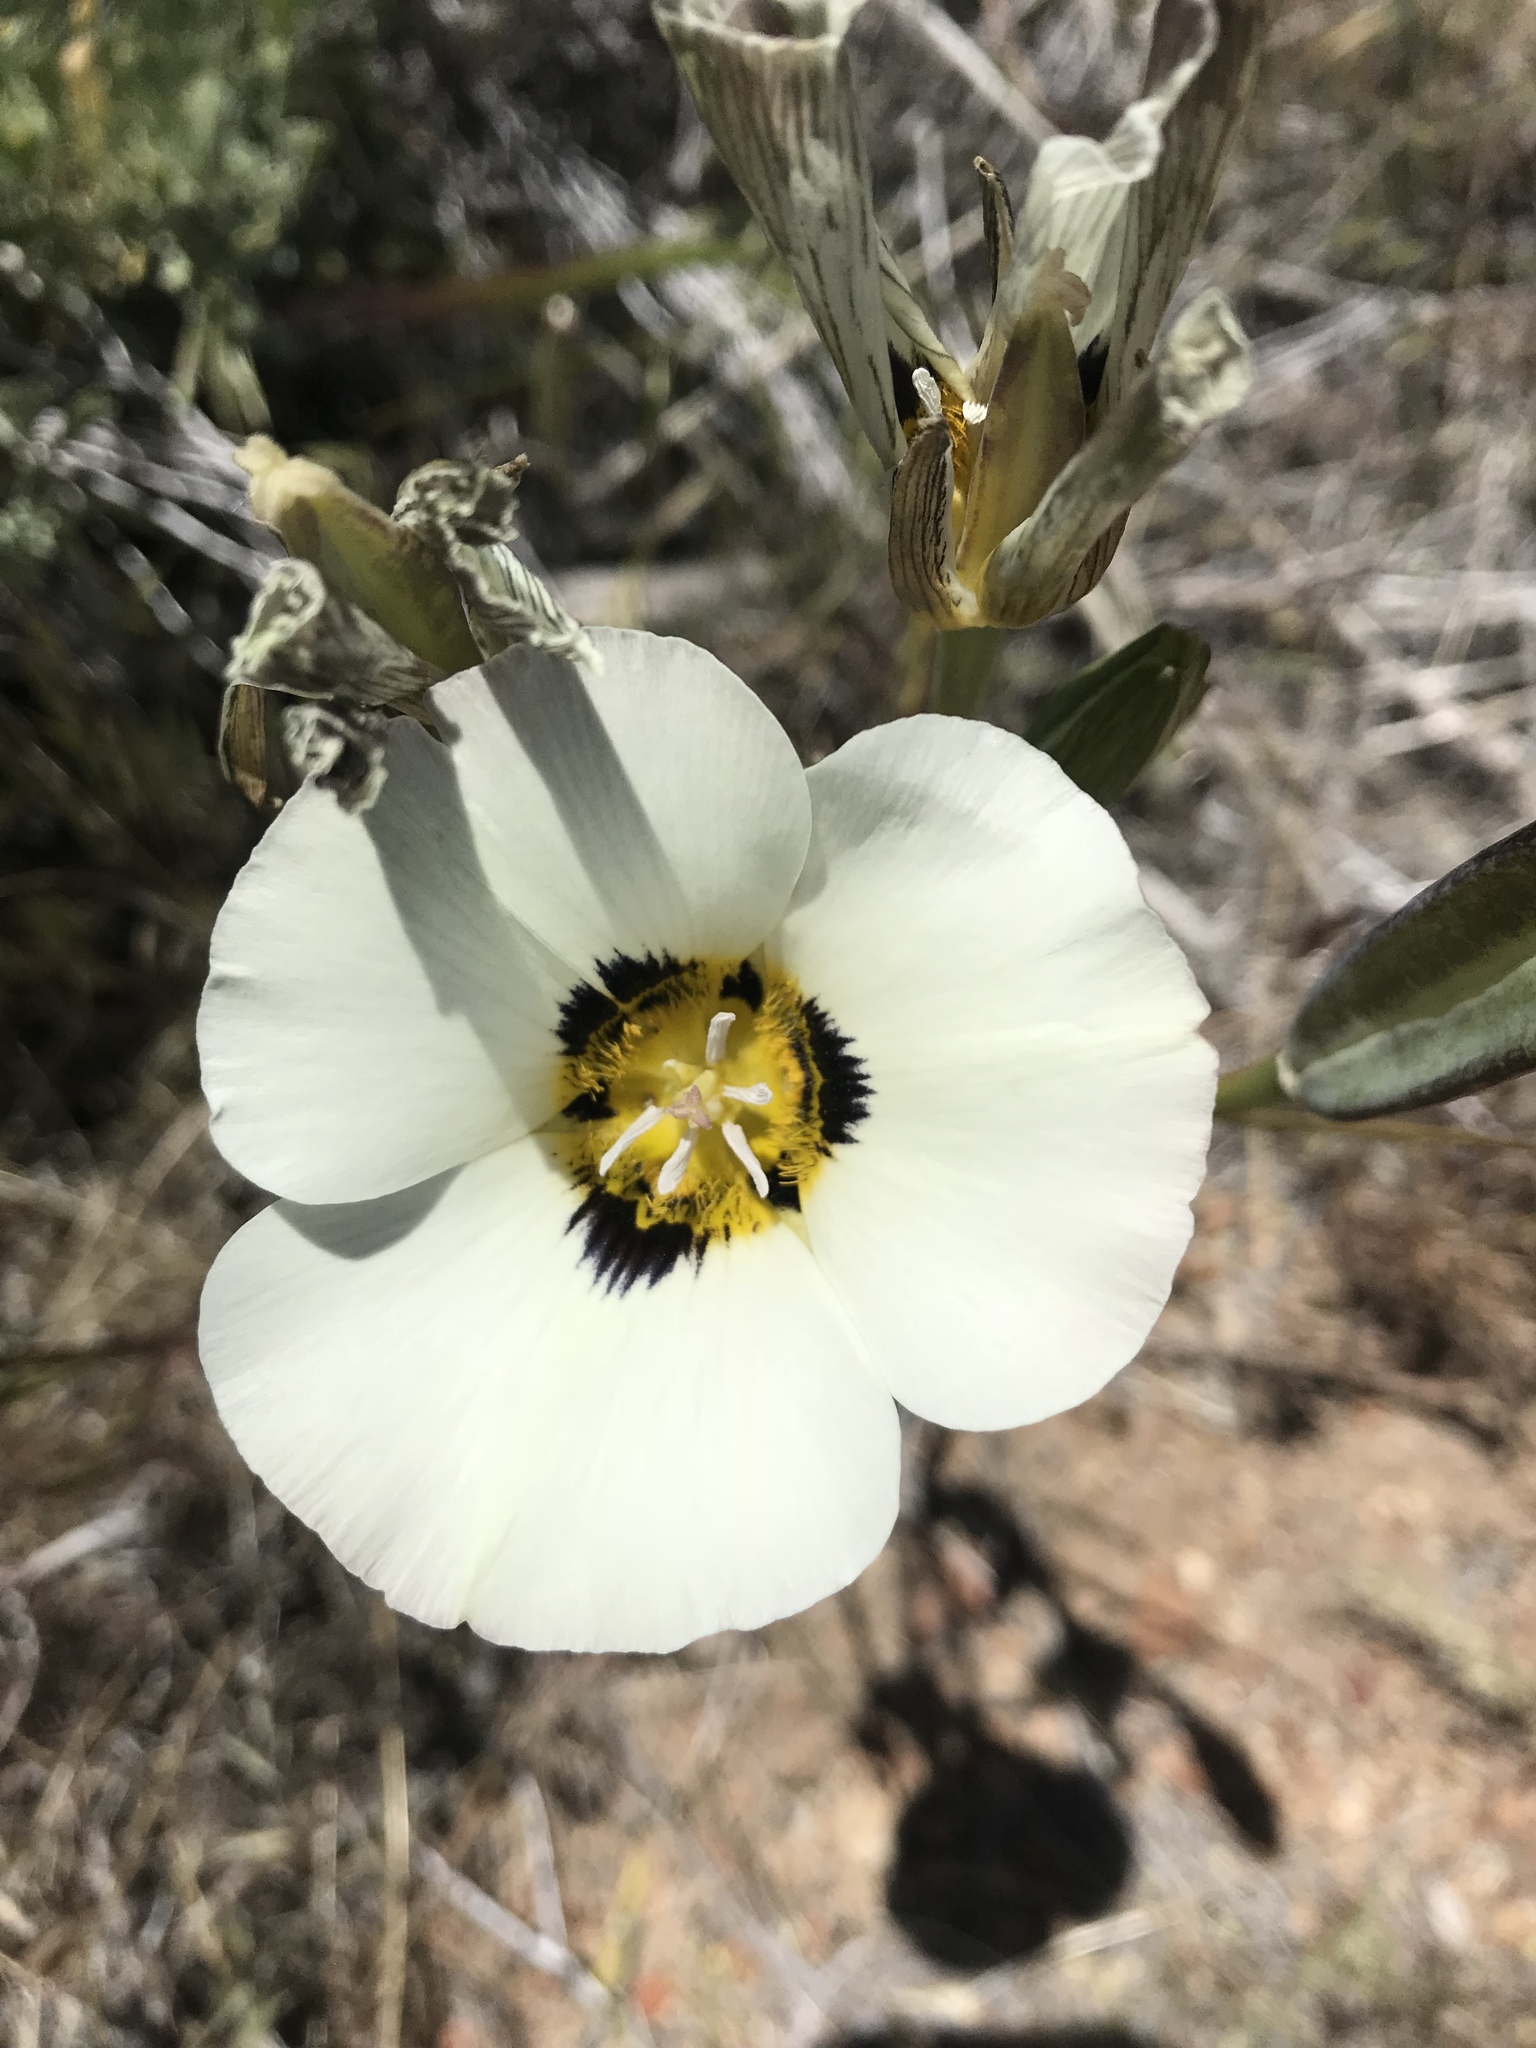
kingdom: Plantae
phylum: Tracheophyta
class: Liliopsida
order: Liliales
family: Liliaceae
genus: Calochortus
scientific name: Calochortus leichtlinii
